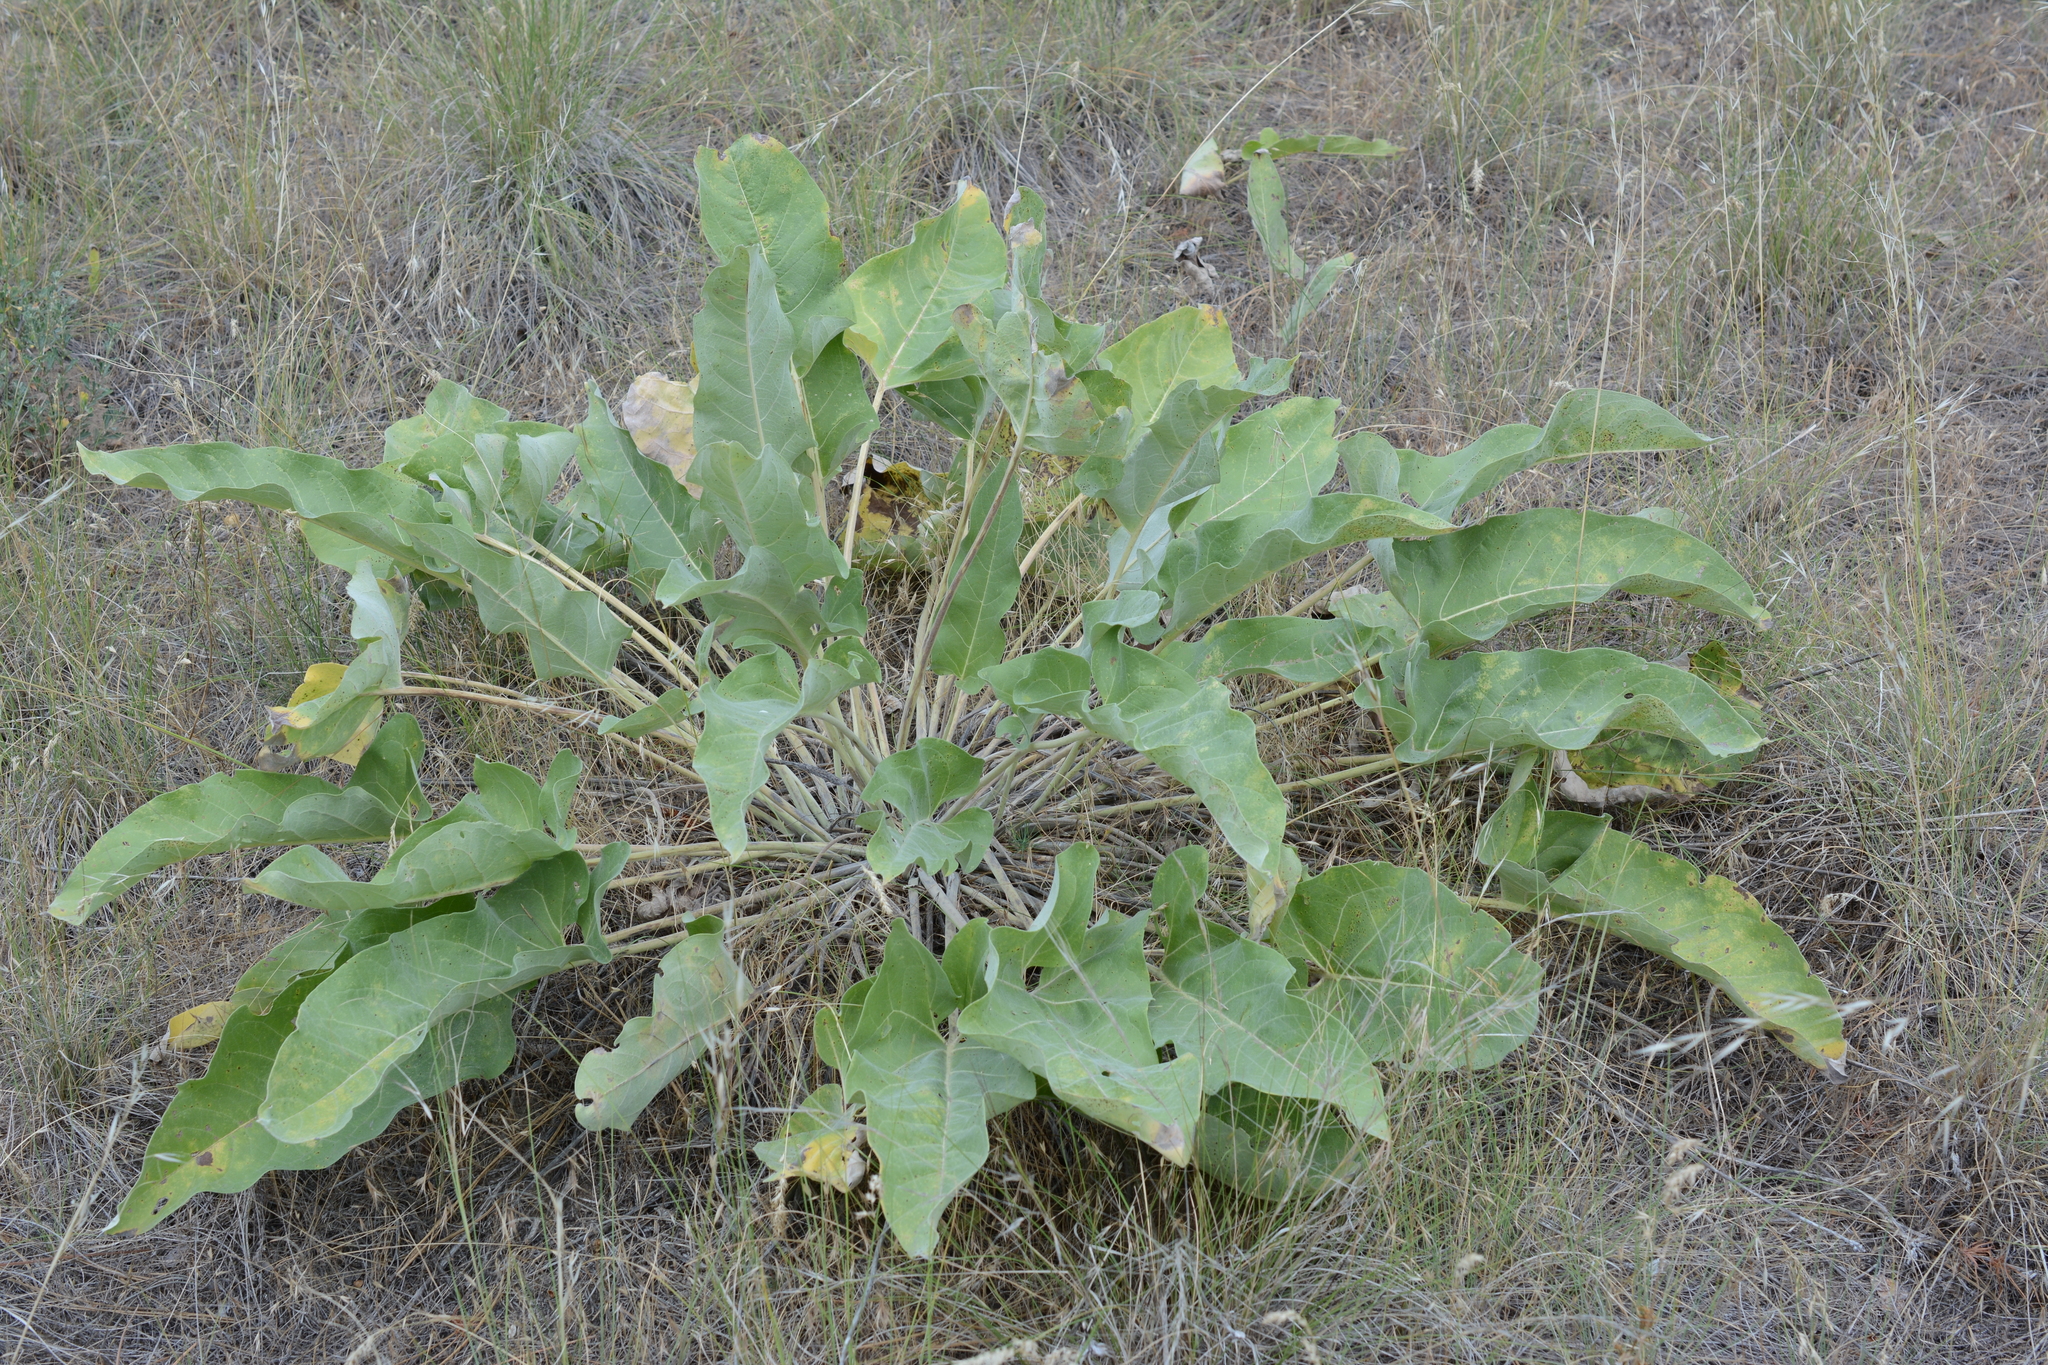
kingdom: Plantae
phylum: Tracheophyta
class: Magnoliopsida
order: Asterales
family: Asteraceae
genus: Wyethia
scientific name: Wyethia sagittata
